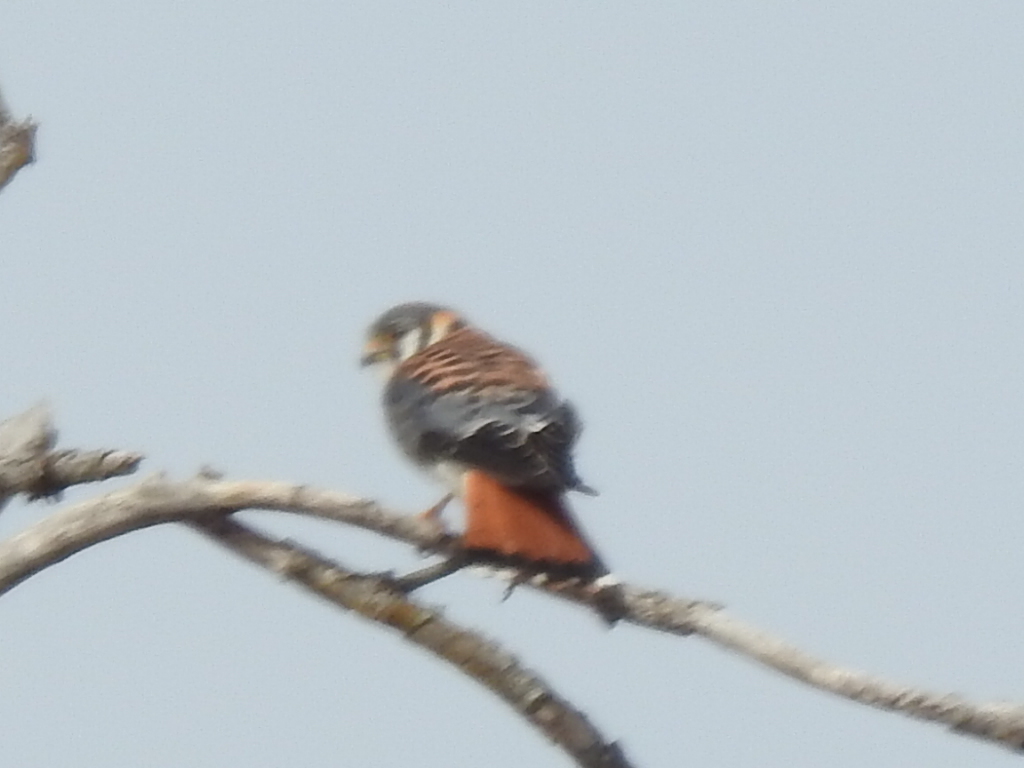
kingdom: Animalia
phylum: Chordata
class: Aves
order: Falconiformes
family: Falconidae
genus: Falco
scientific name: Falco sparverius
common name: American kestrel
